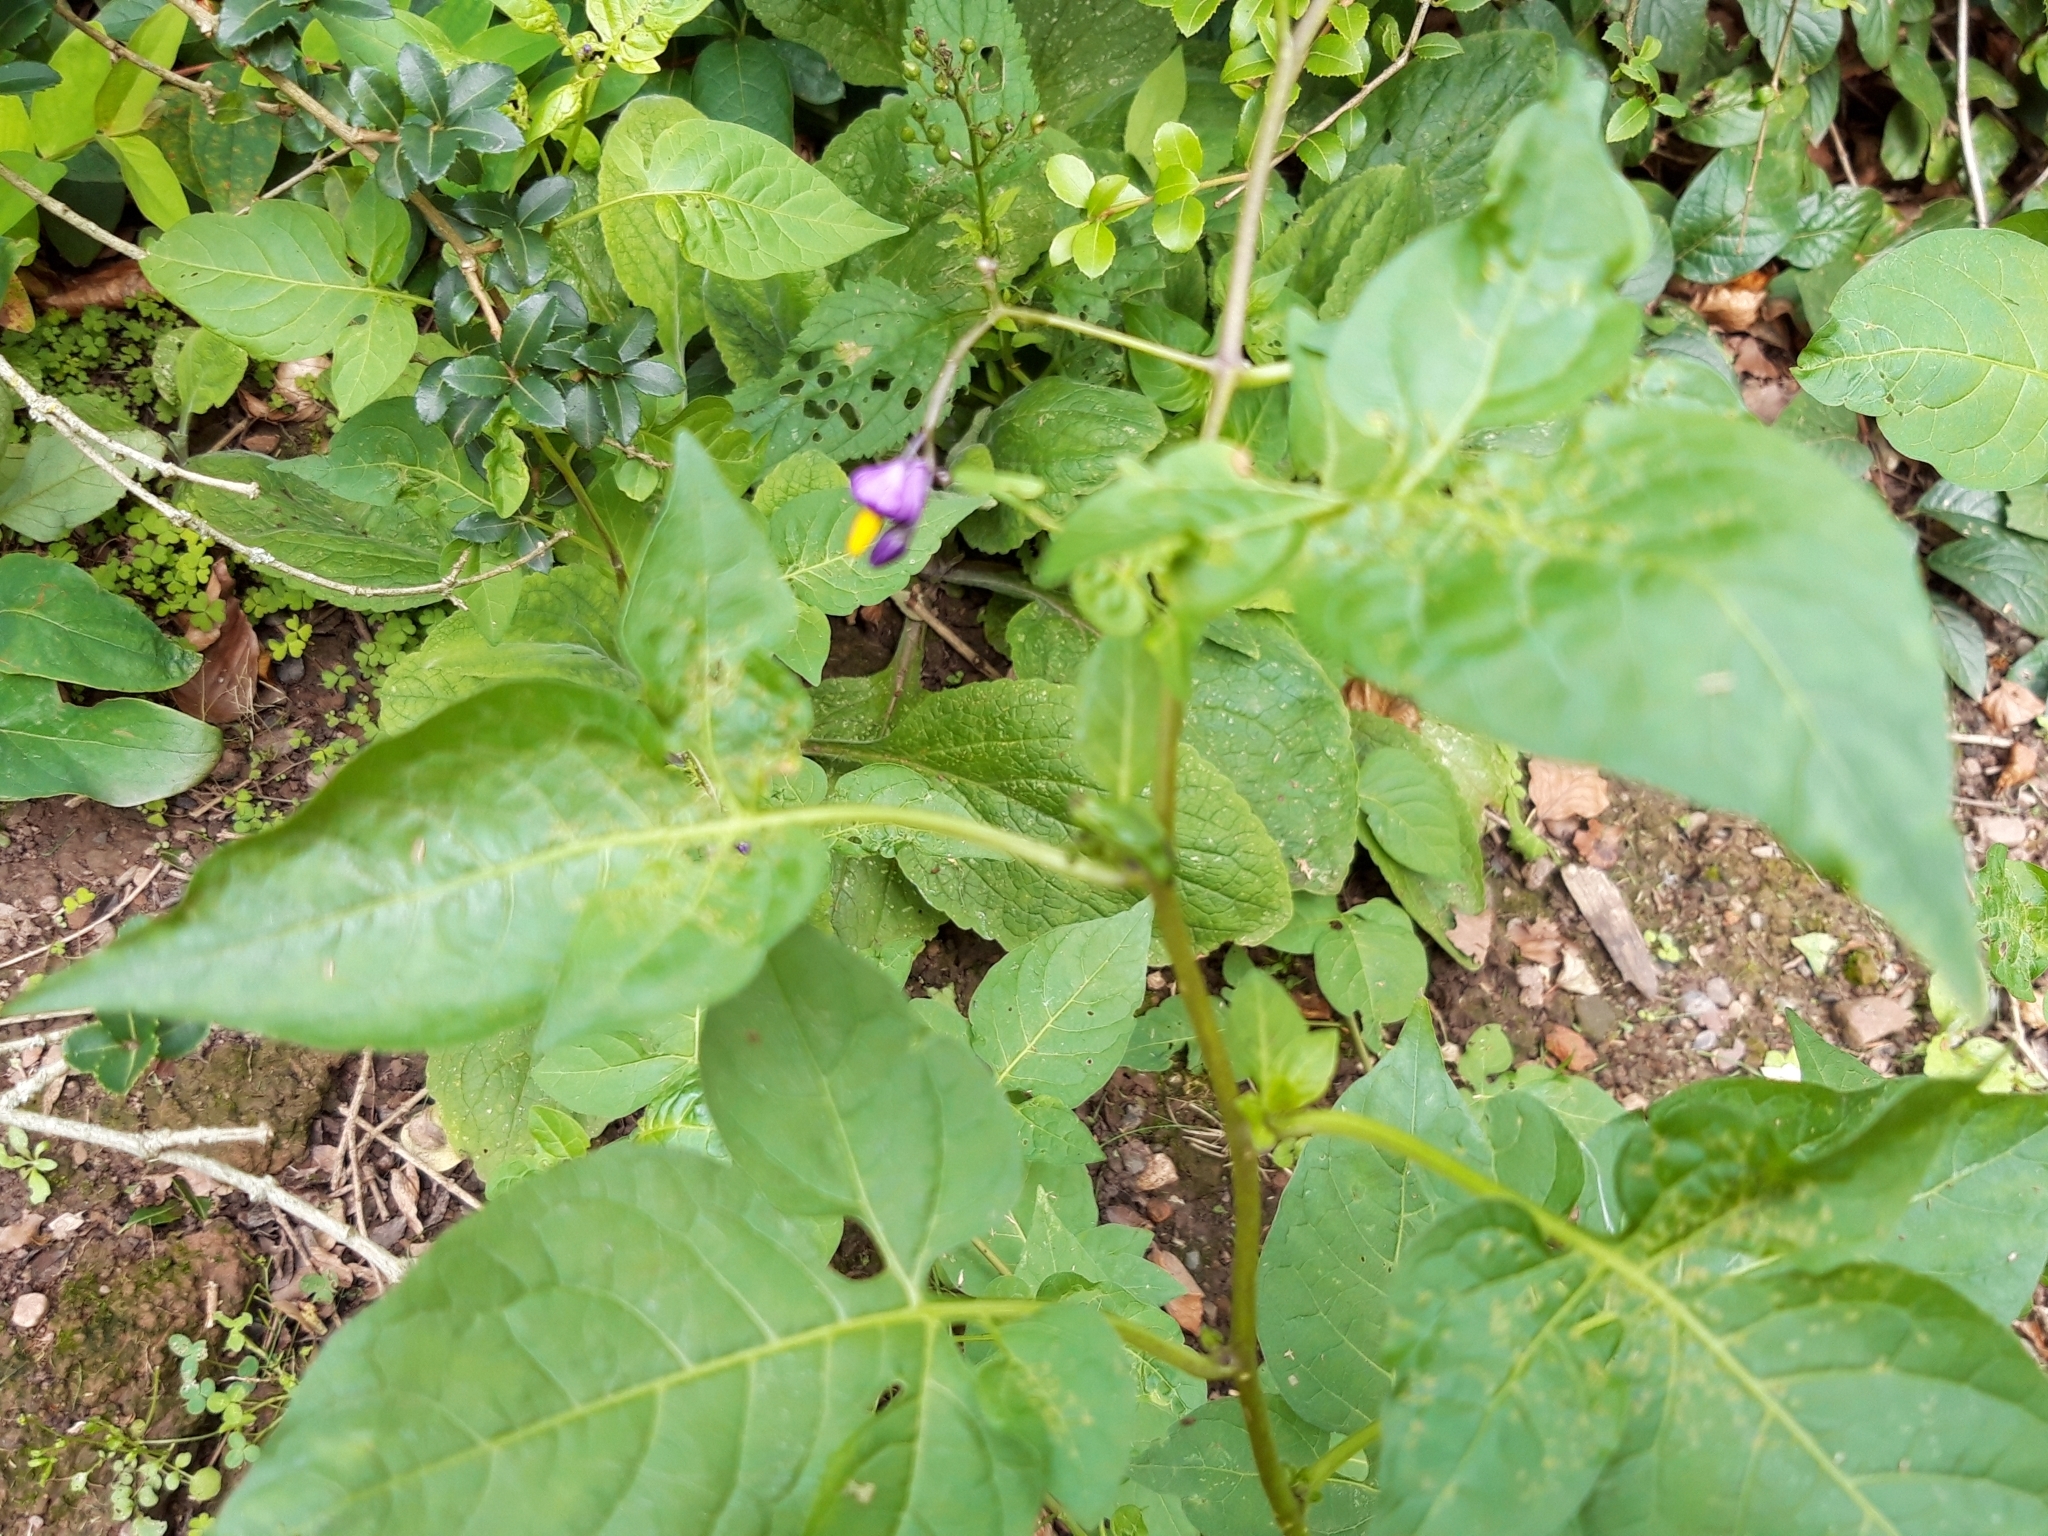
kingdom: Plantae
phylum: Tracheophyta
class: Magnoliopsida
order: Solanales
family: Solanaceae
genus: Solanum
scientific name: Solanum dulcamara
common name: Climbing nightshade
